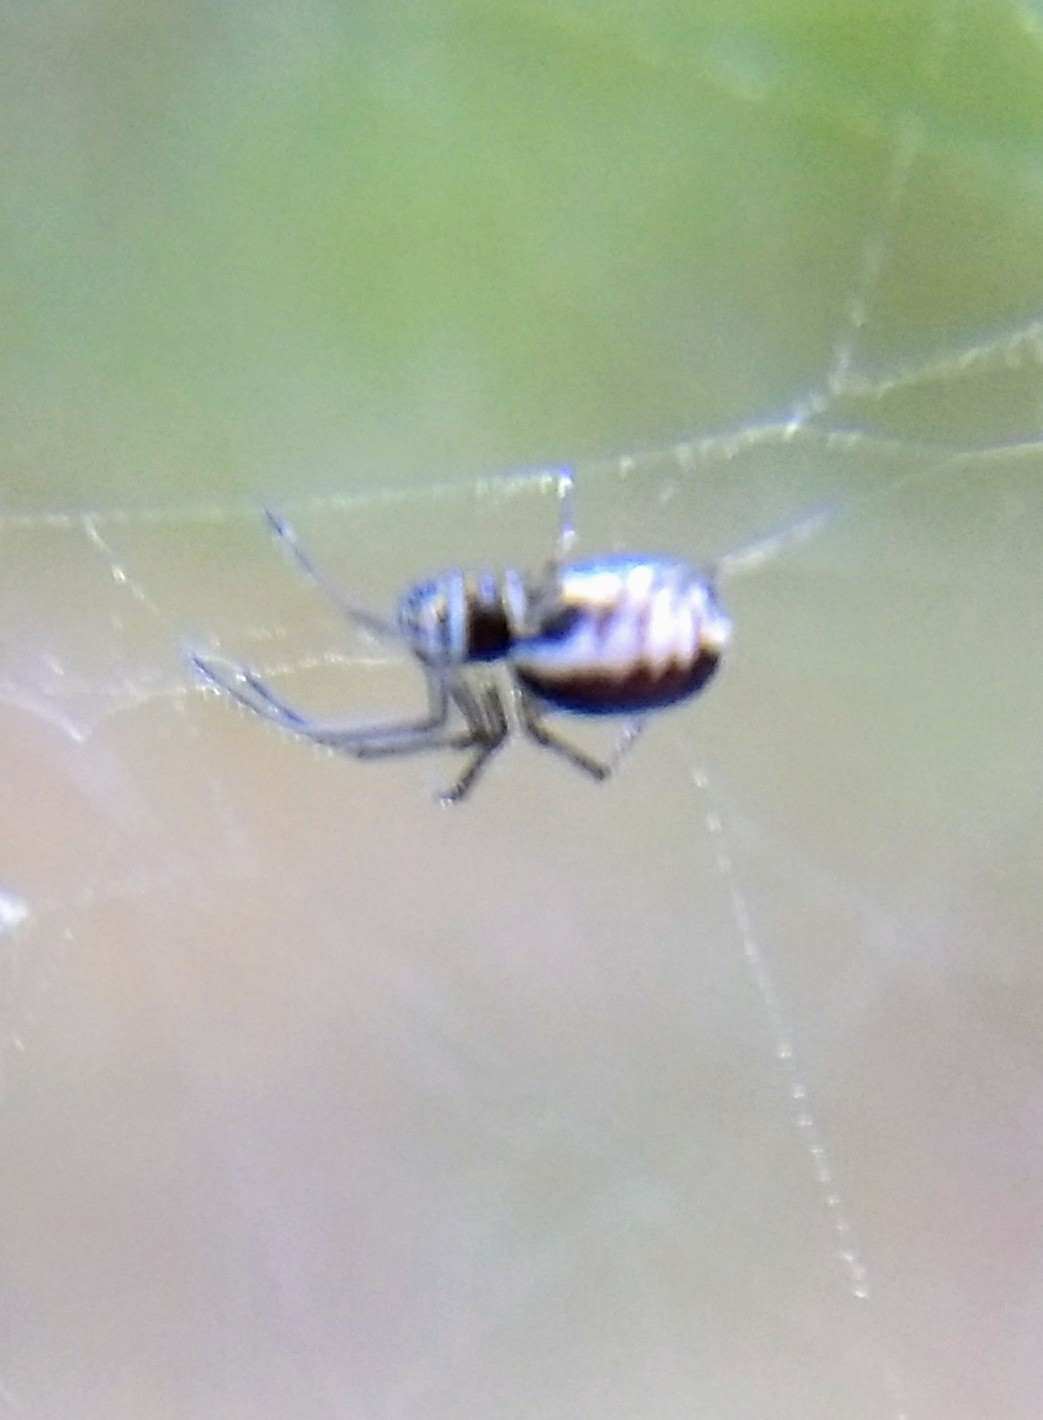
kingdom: Animalia
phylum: Arthropoda
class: Arachnida
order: Araneae
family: Linyphiidae
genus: Frontinella
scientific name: Frontinella pyramitela
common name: Bowl-and-doily spider
